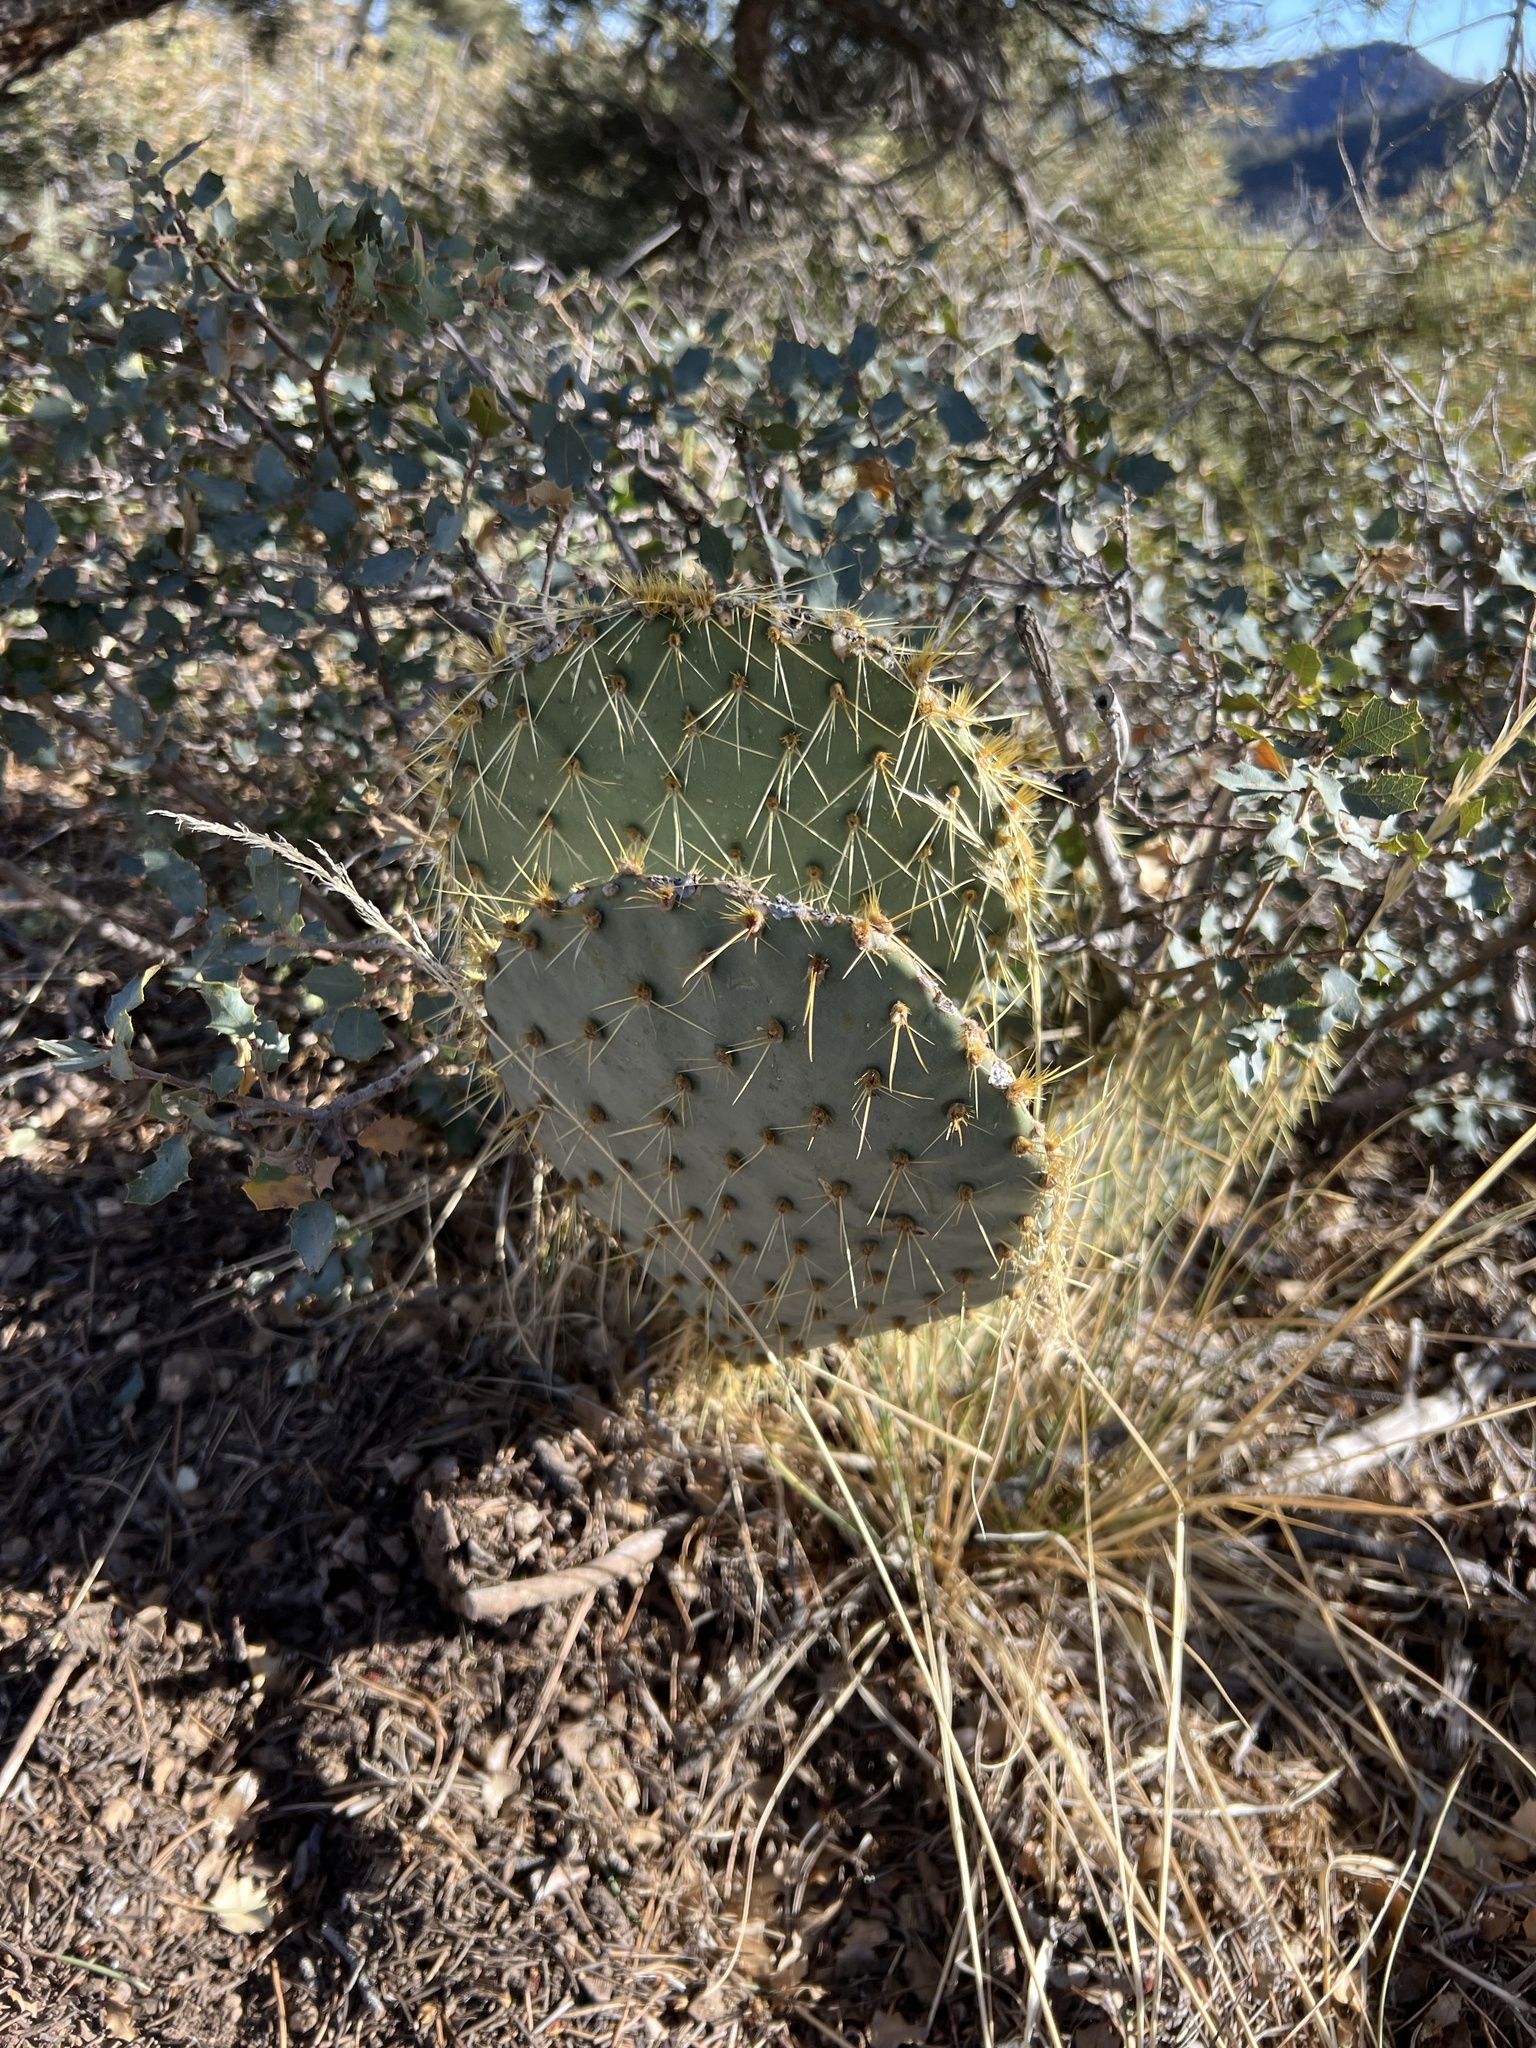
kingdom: Plantae
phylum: Tracheophyta
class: Magnoliopsida
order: Caryophyllales
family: Cactaceae
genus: Opuntia
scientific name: Opuntia chlorotica
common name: Dollar-joint prickly-pear
